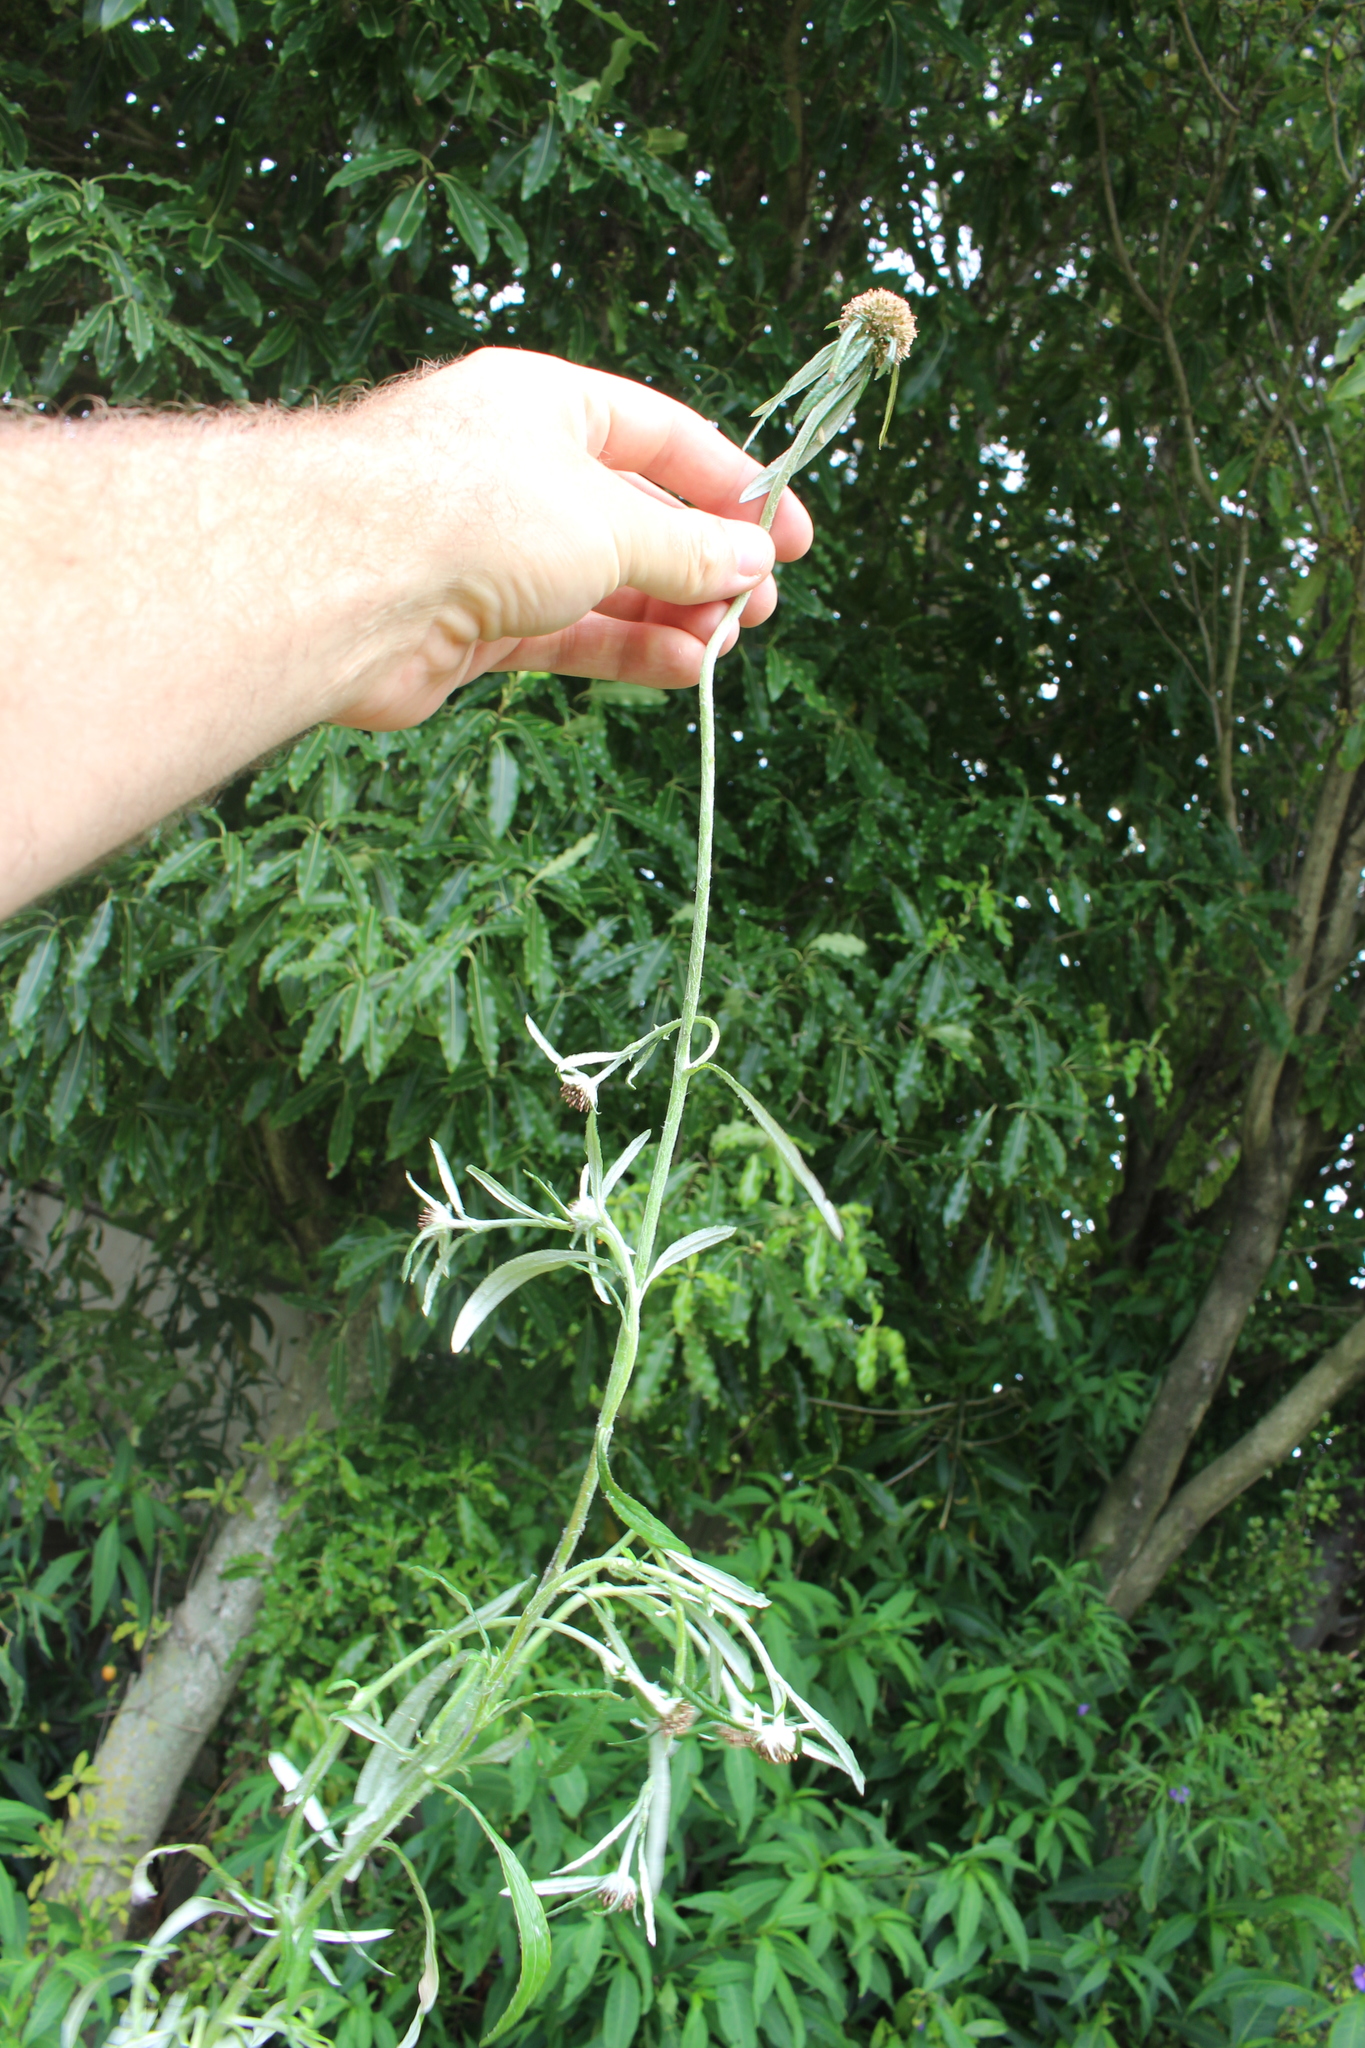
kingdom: Plantae
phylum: Tracheophyta
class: Magnoliopsida
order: Asterales
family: Asteraceae
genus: Euchiton
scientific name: Euchiton sphaericus
